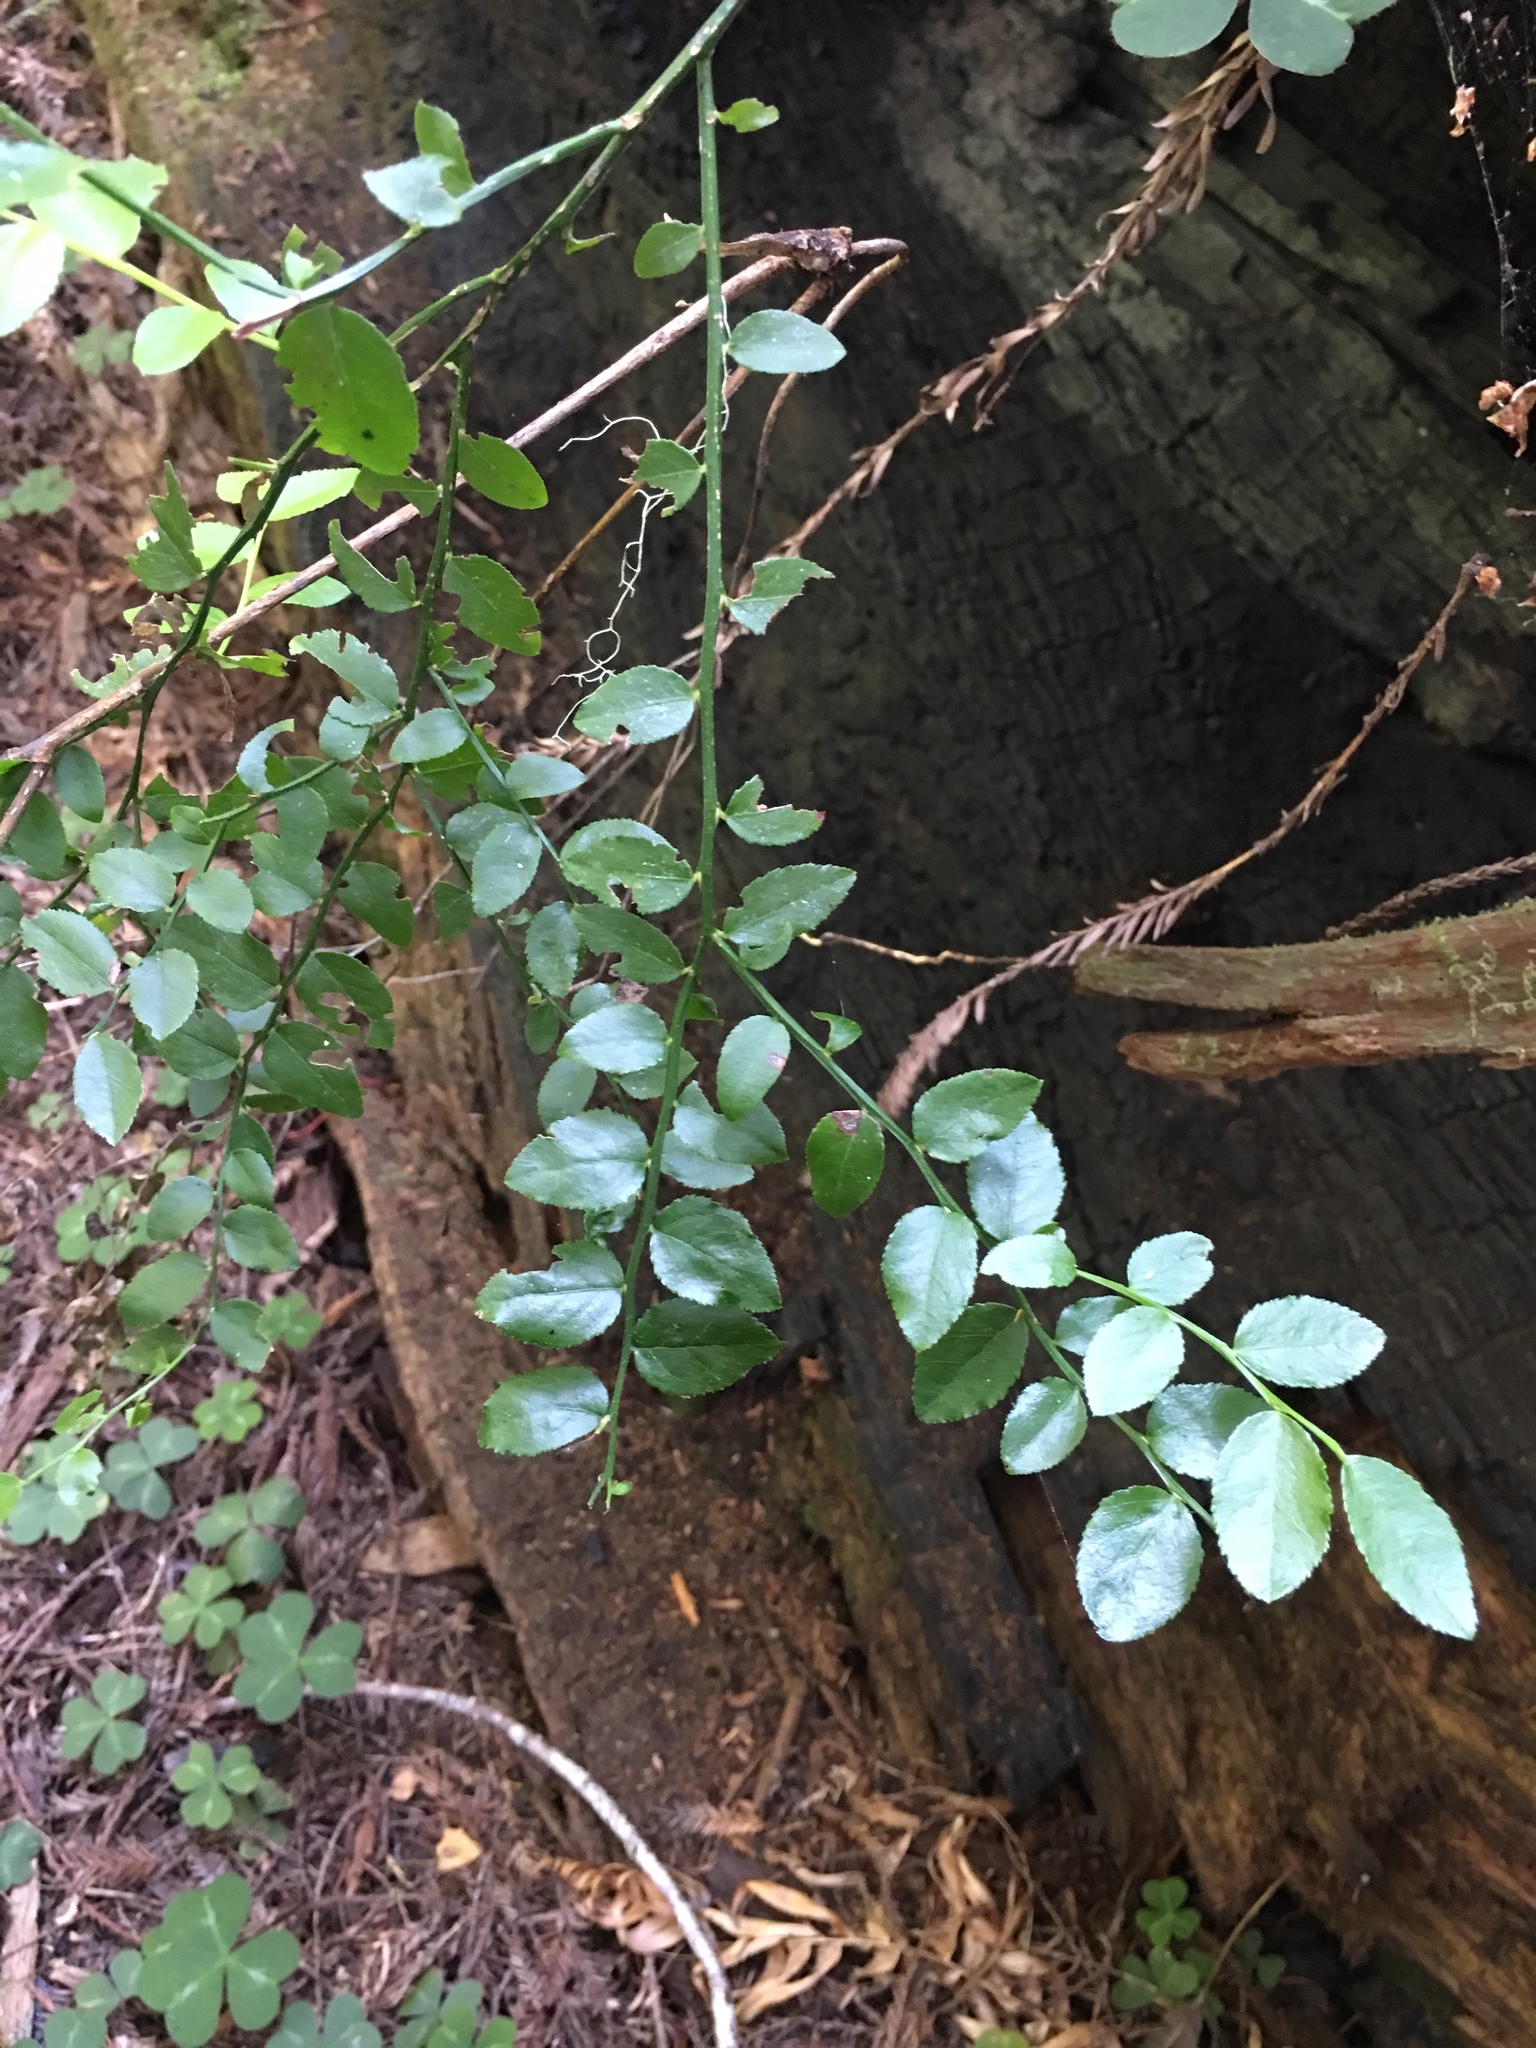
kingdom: Plantae
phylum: Tracheophyta
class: Magnoliopsida
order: Ericales
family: Ericaceae
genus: Vaccinium
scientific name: Vaccinium parvifolium
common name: Red-huckleberry
